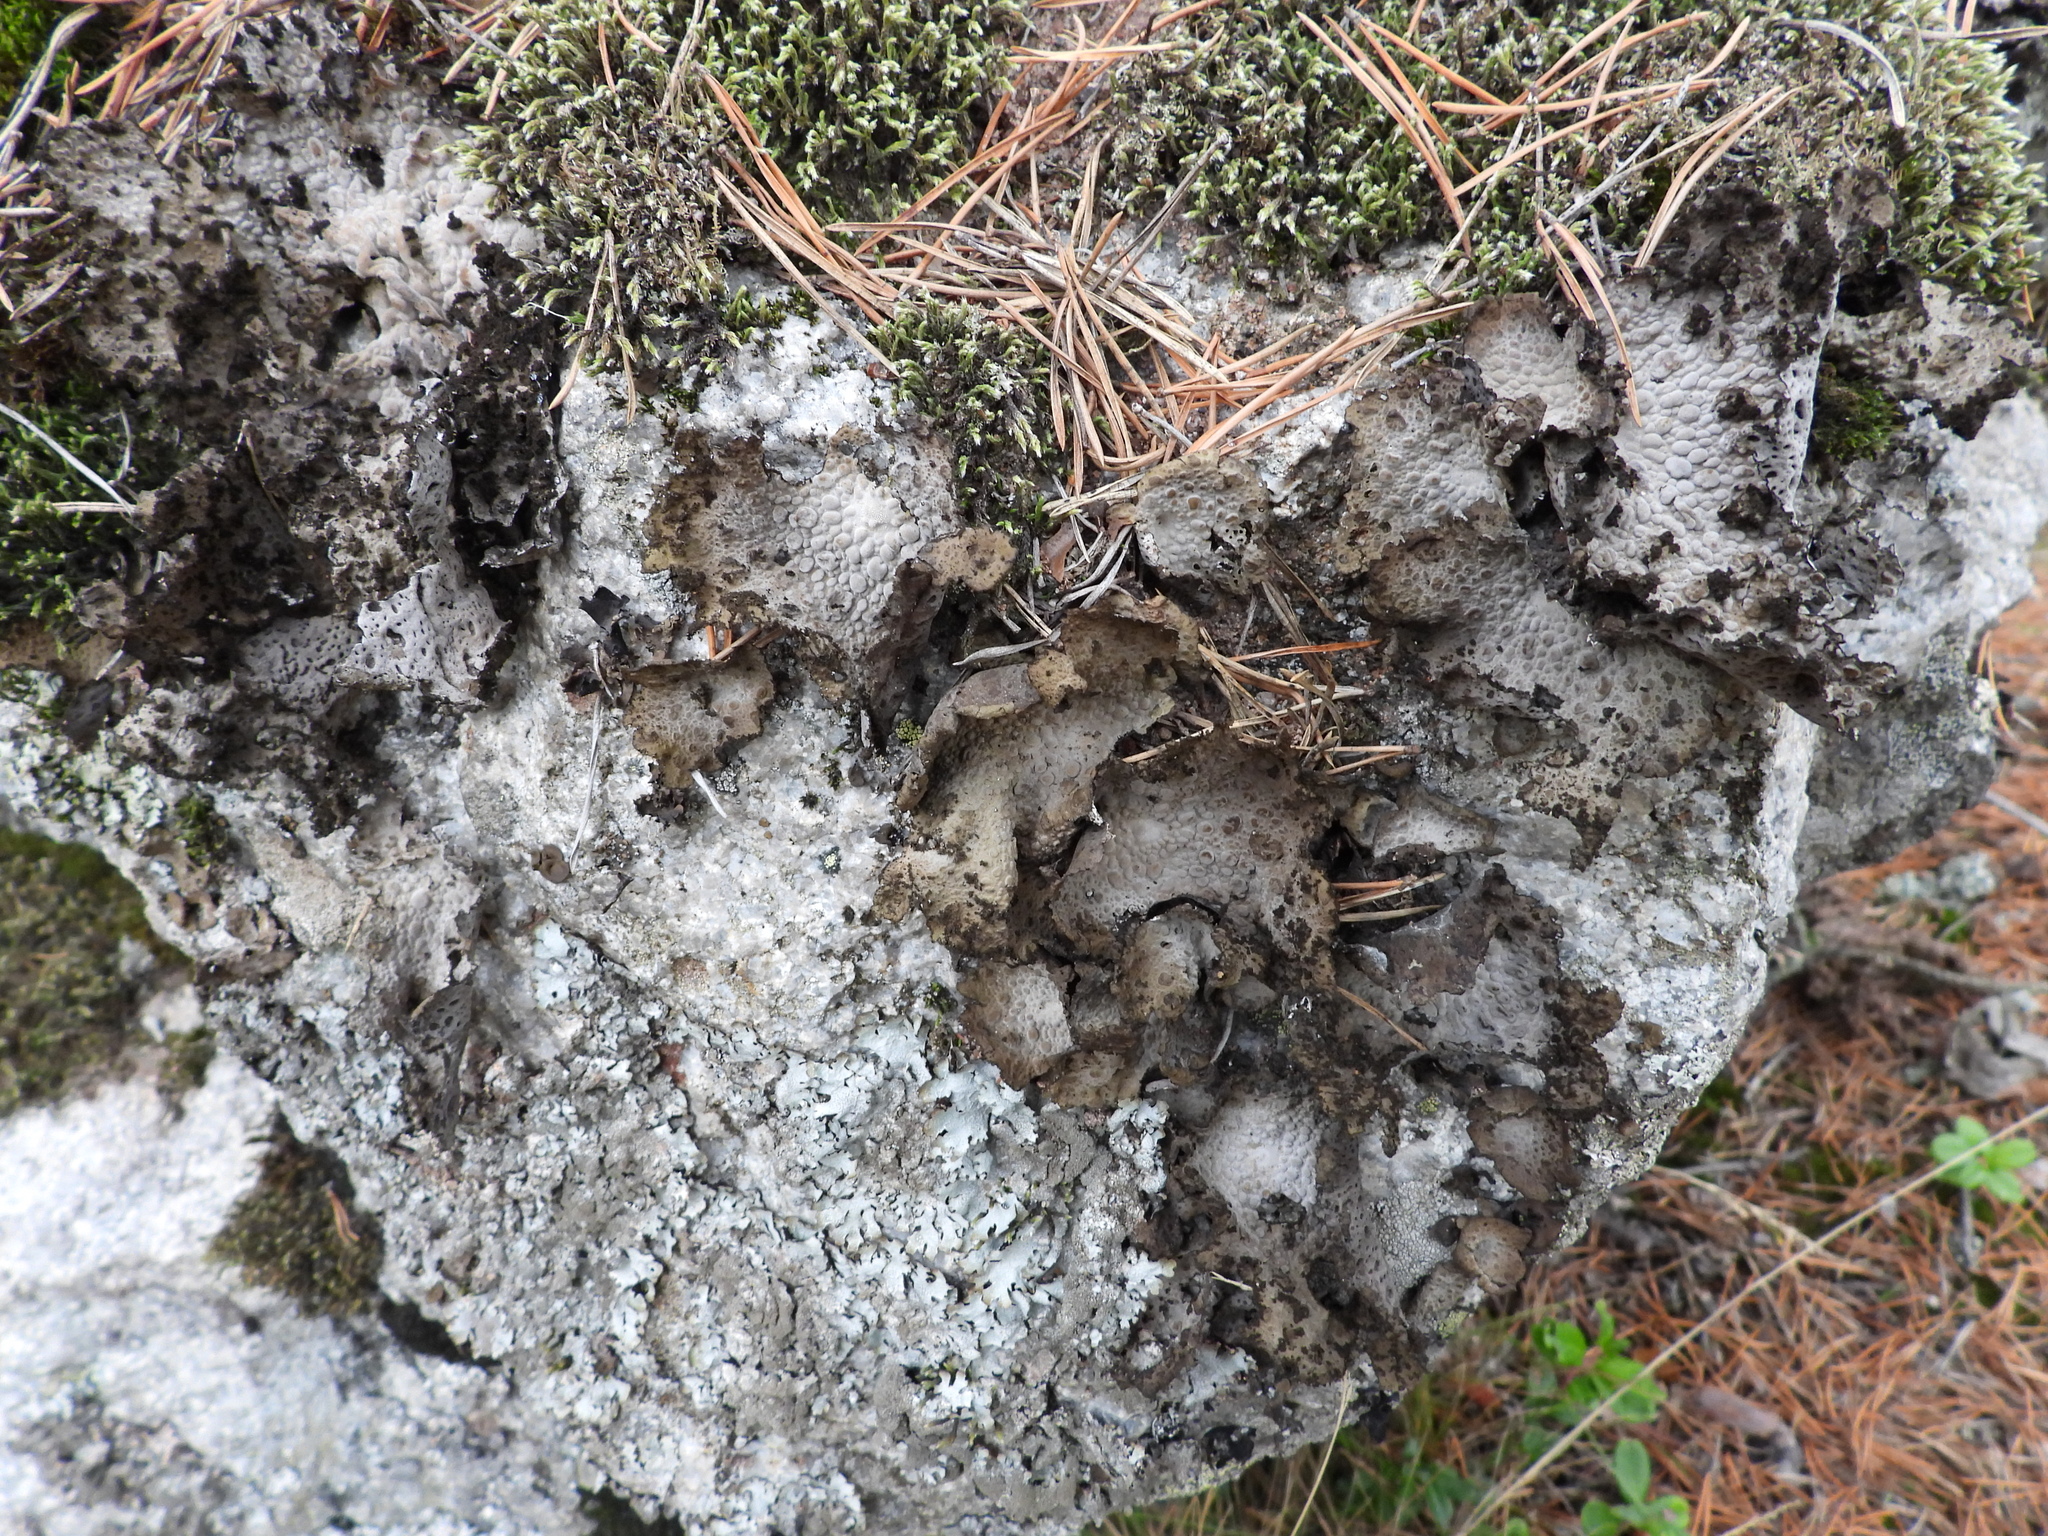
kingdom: Fungi
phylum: Ascomycota
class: Lecanoromycetes
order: Umbilicariales
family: Umbilicariaceae
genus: Lasallia
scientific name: Lasallia pustulata
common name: Blistered toadskin lichen
